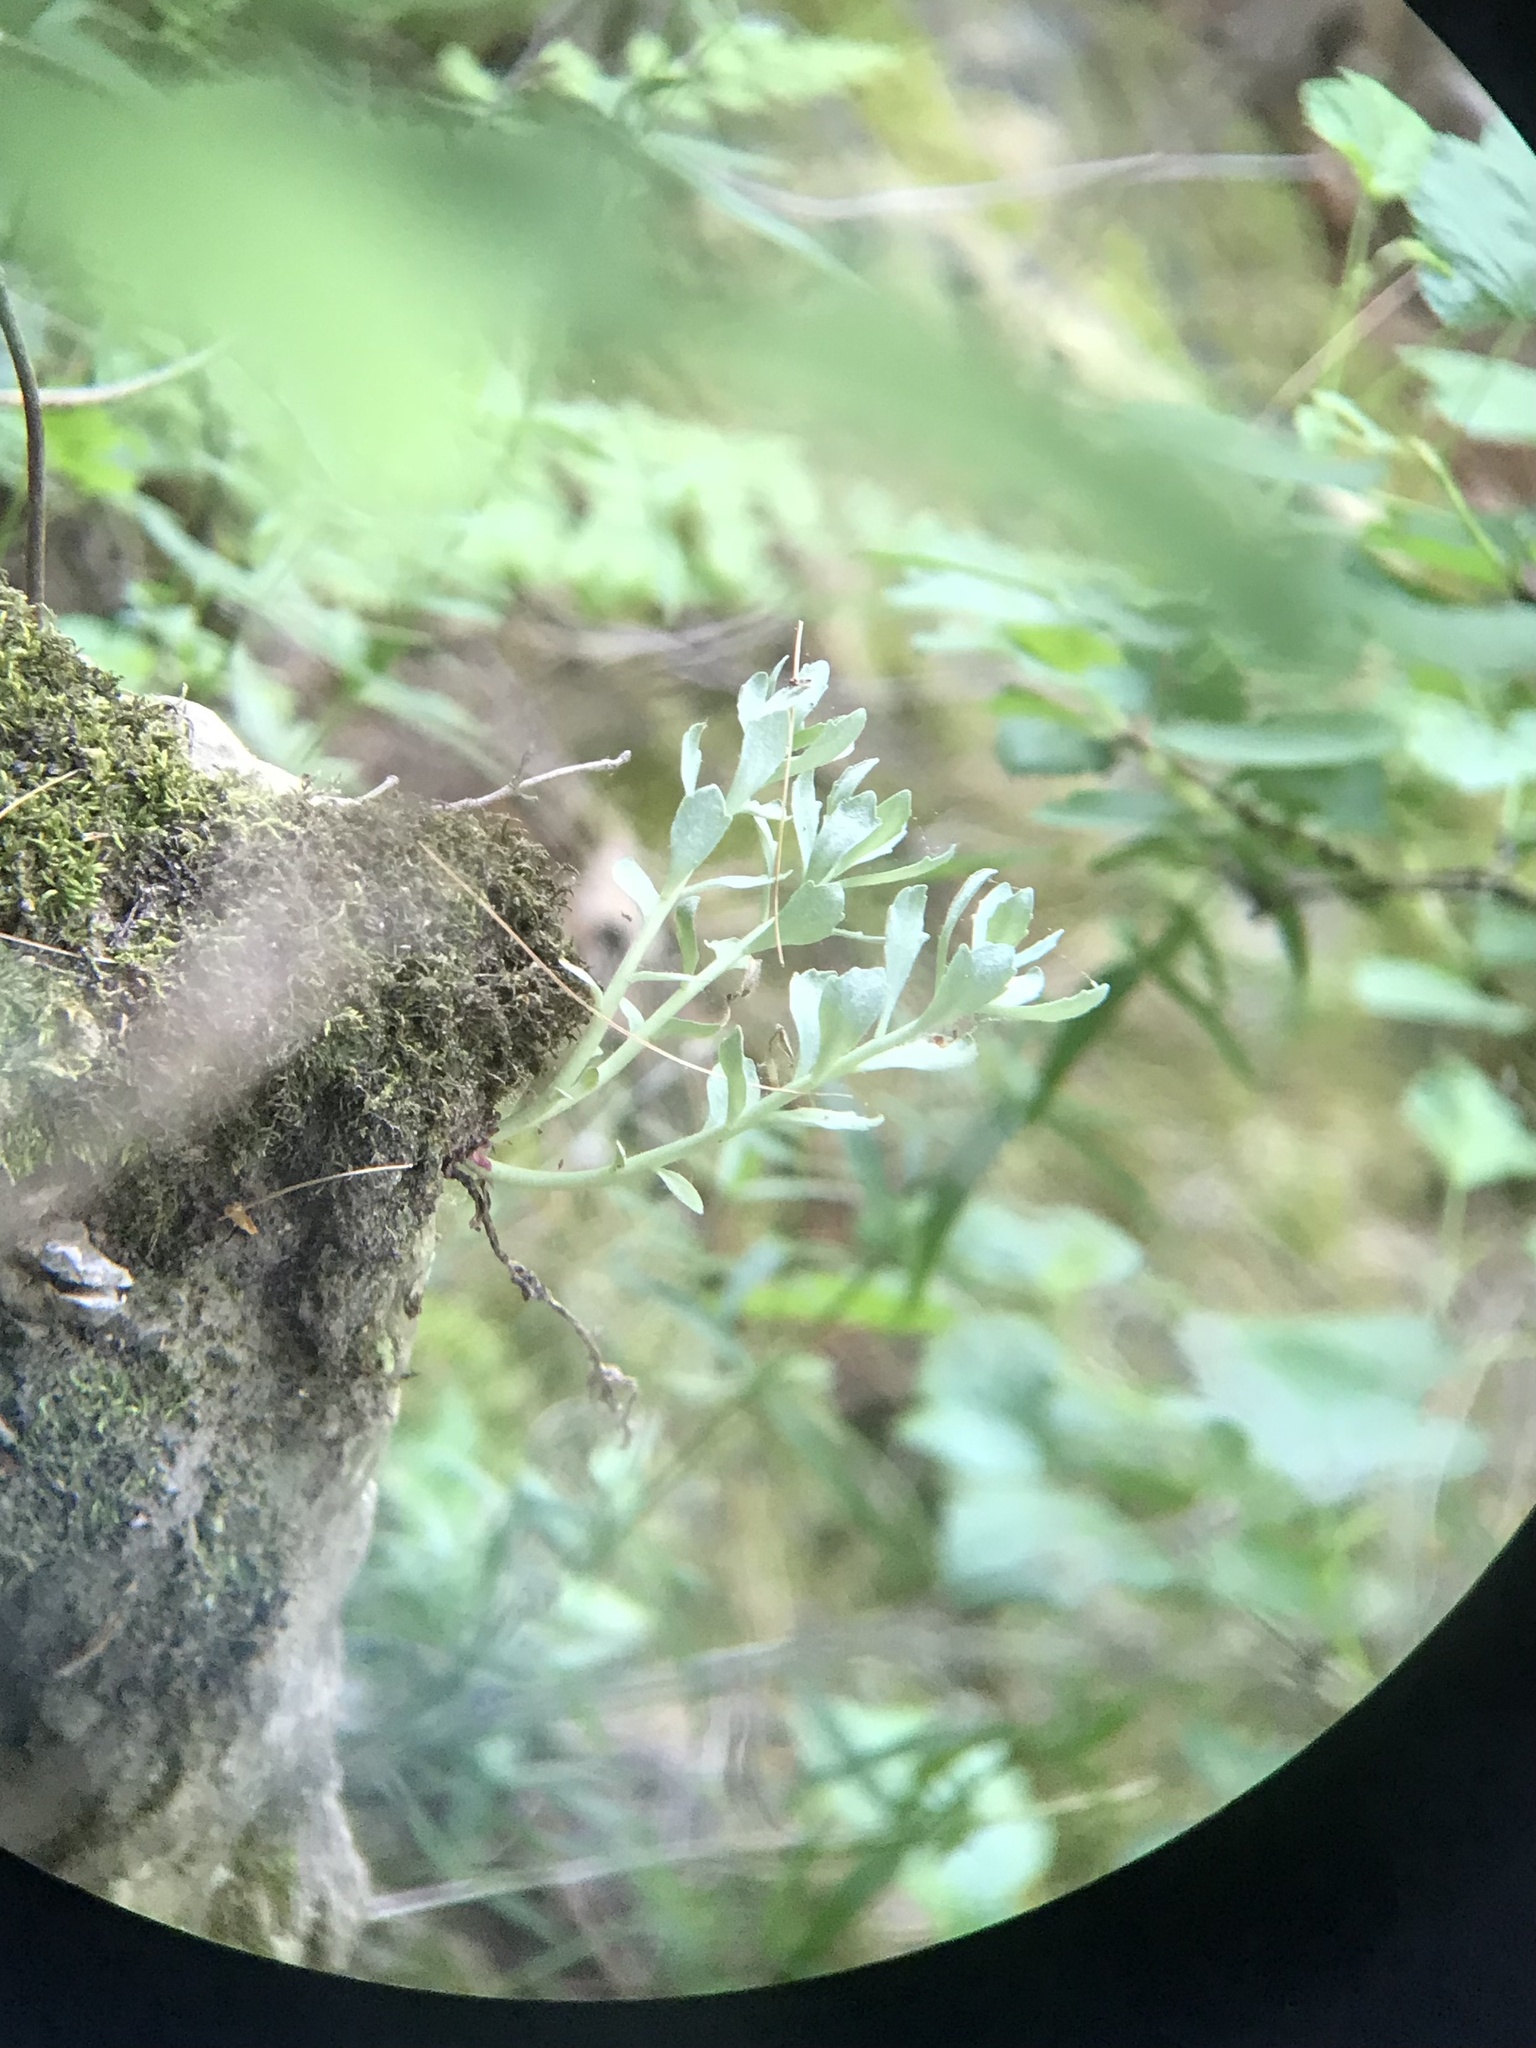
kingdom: Plantae
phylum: Tracheophyta
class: Magnoliopsida
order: Saxifragales
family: Crassulaceae
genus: Rhodiola
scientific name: Rhodiola integrifolia
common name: Western roseroot
